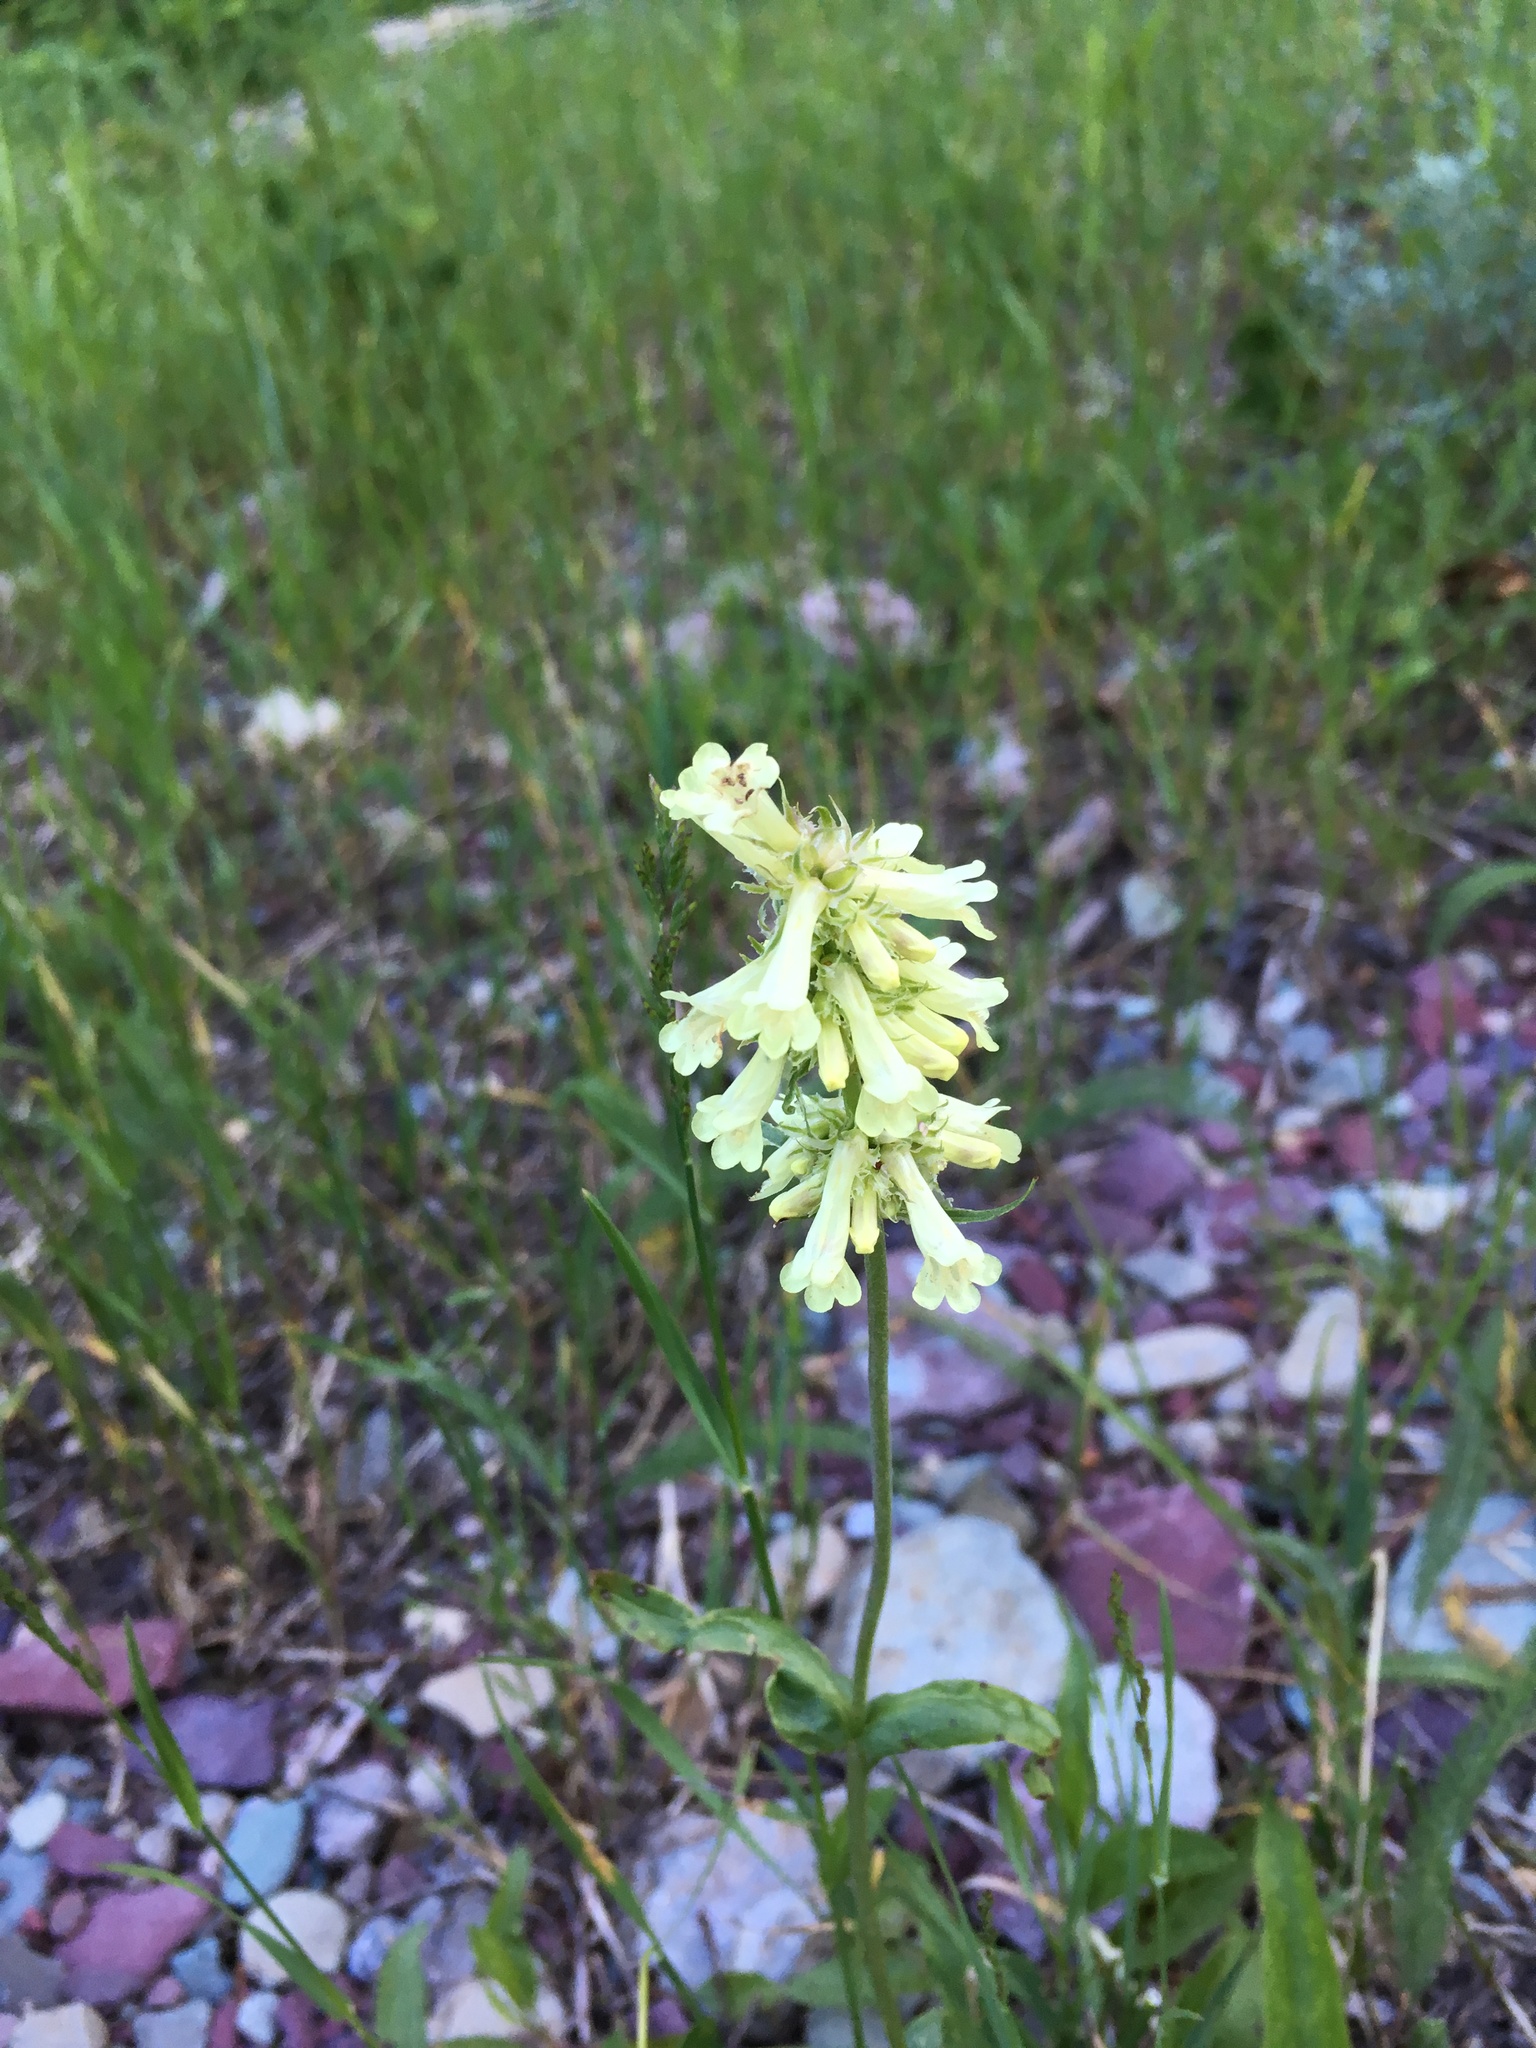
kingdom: Plantae
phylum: Tracheophyta
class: Magnoliopsida
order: Lamiales
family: Plantaginaceae
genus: Penstemon
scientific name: Penstemon confertus
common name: Lesser yellow beardtongue
